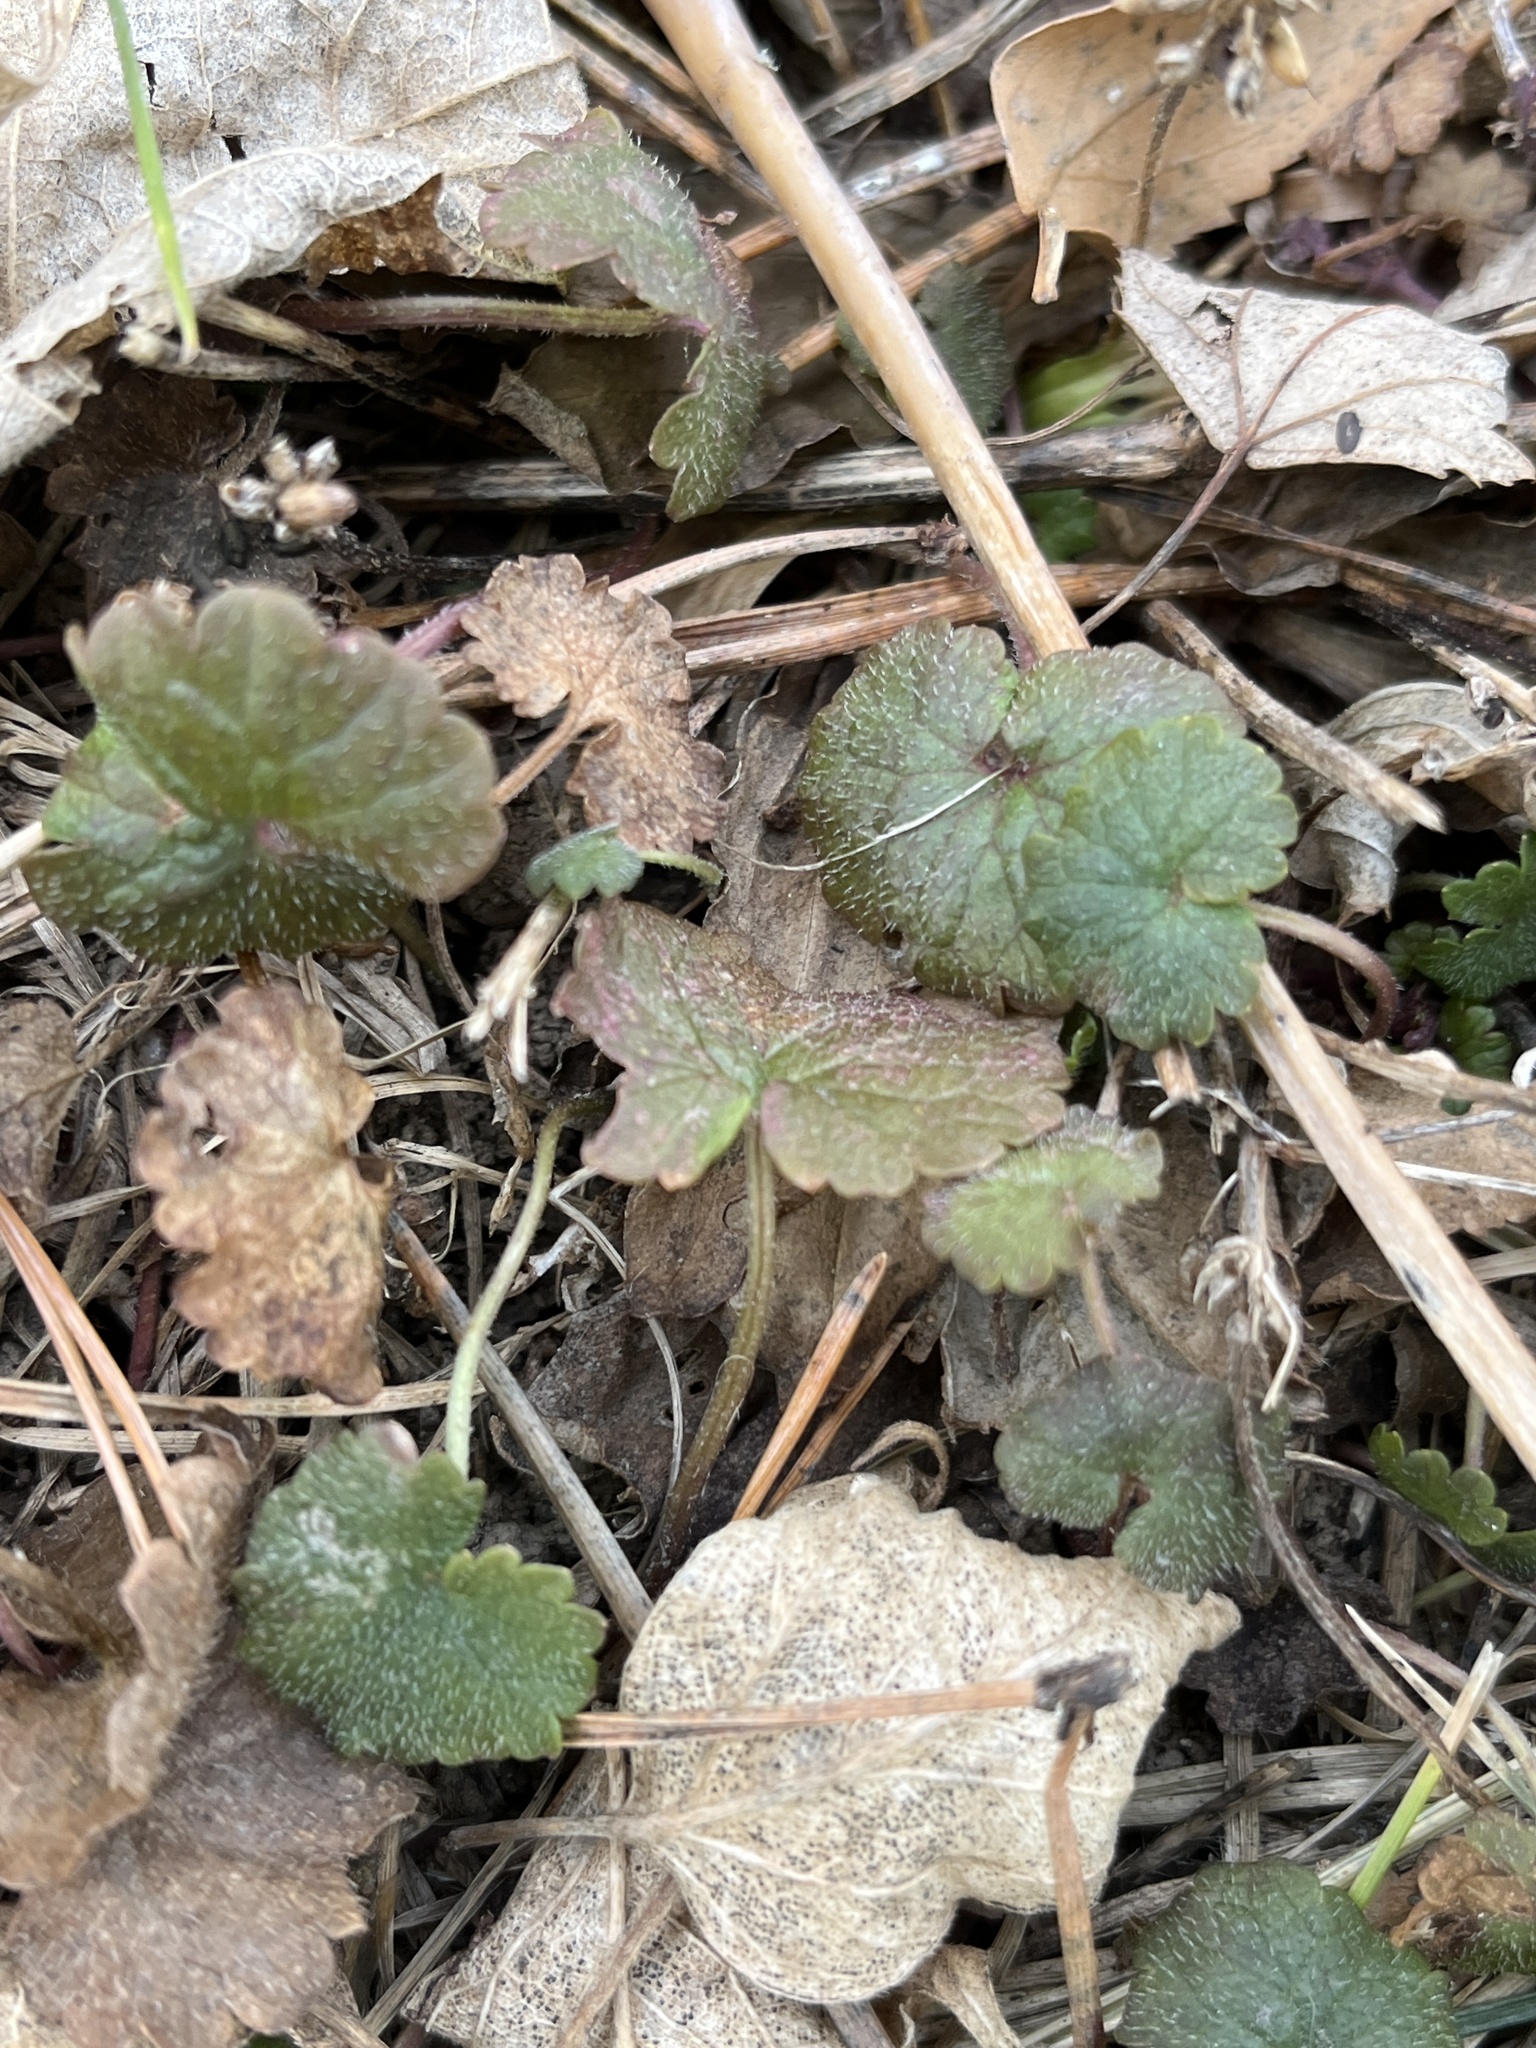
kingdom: Plantae
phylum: Tracheophyta
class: Magnoliopsida
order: Lamiales
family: Lamiaceae
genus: Glechoma
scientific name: Glechoma hederacea
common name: Ground ivy
